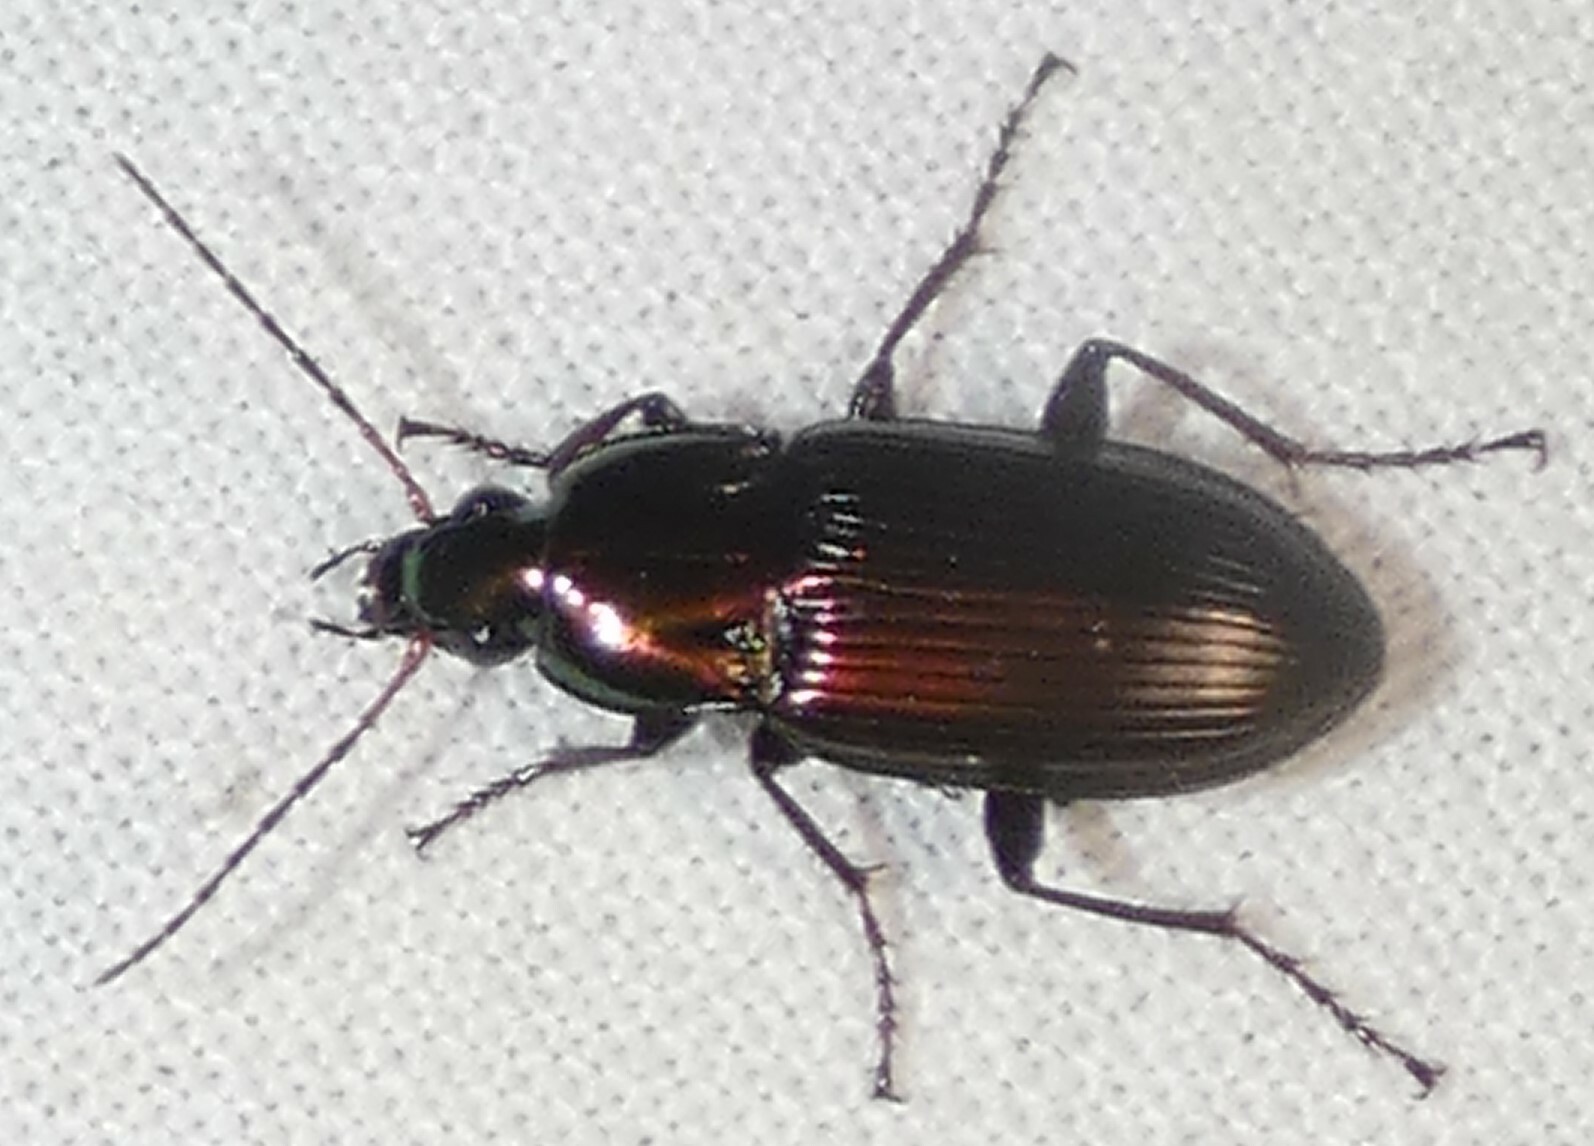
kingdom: Animalia
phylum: Arthropoda
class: Insecta
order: Coleoptera
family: Carabidae
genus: Poecilus
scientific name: Poecilus chalcites
